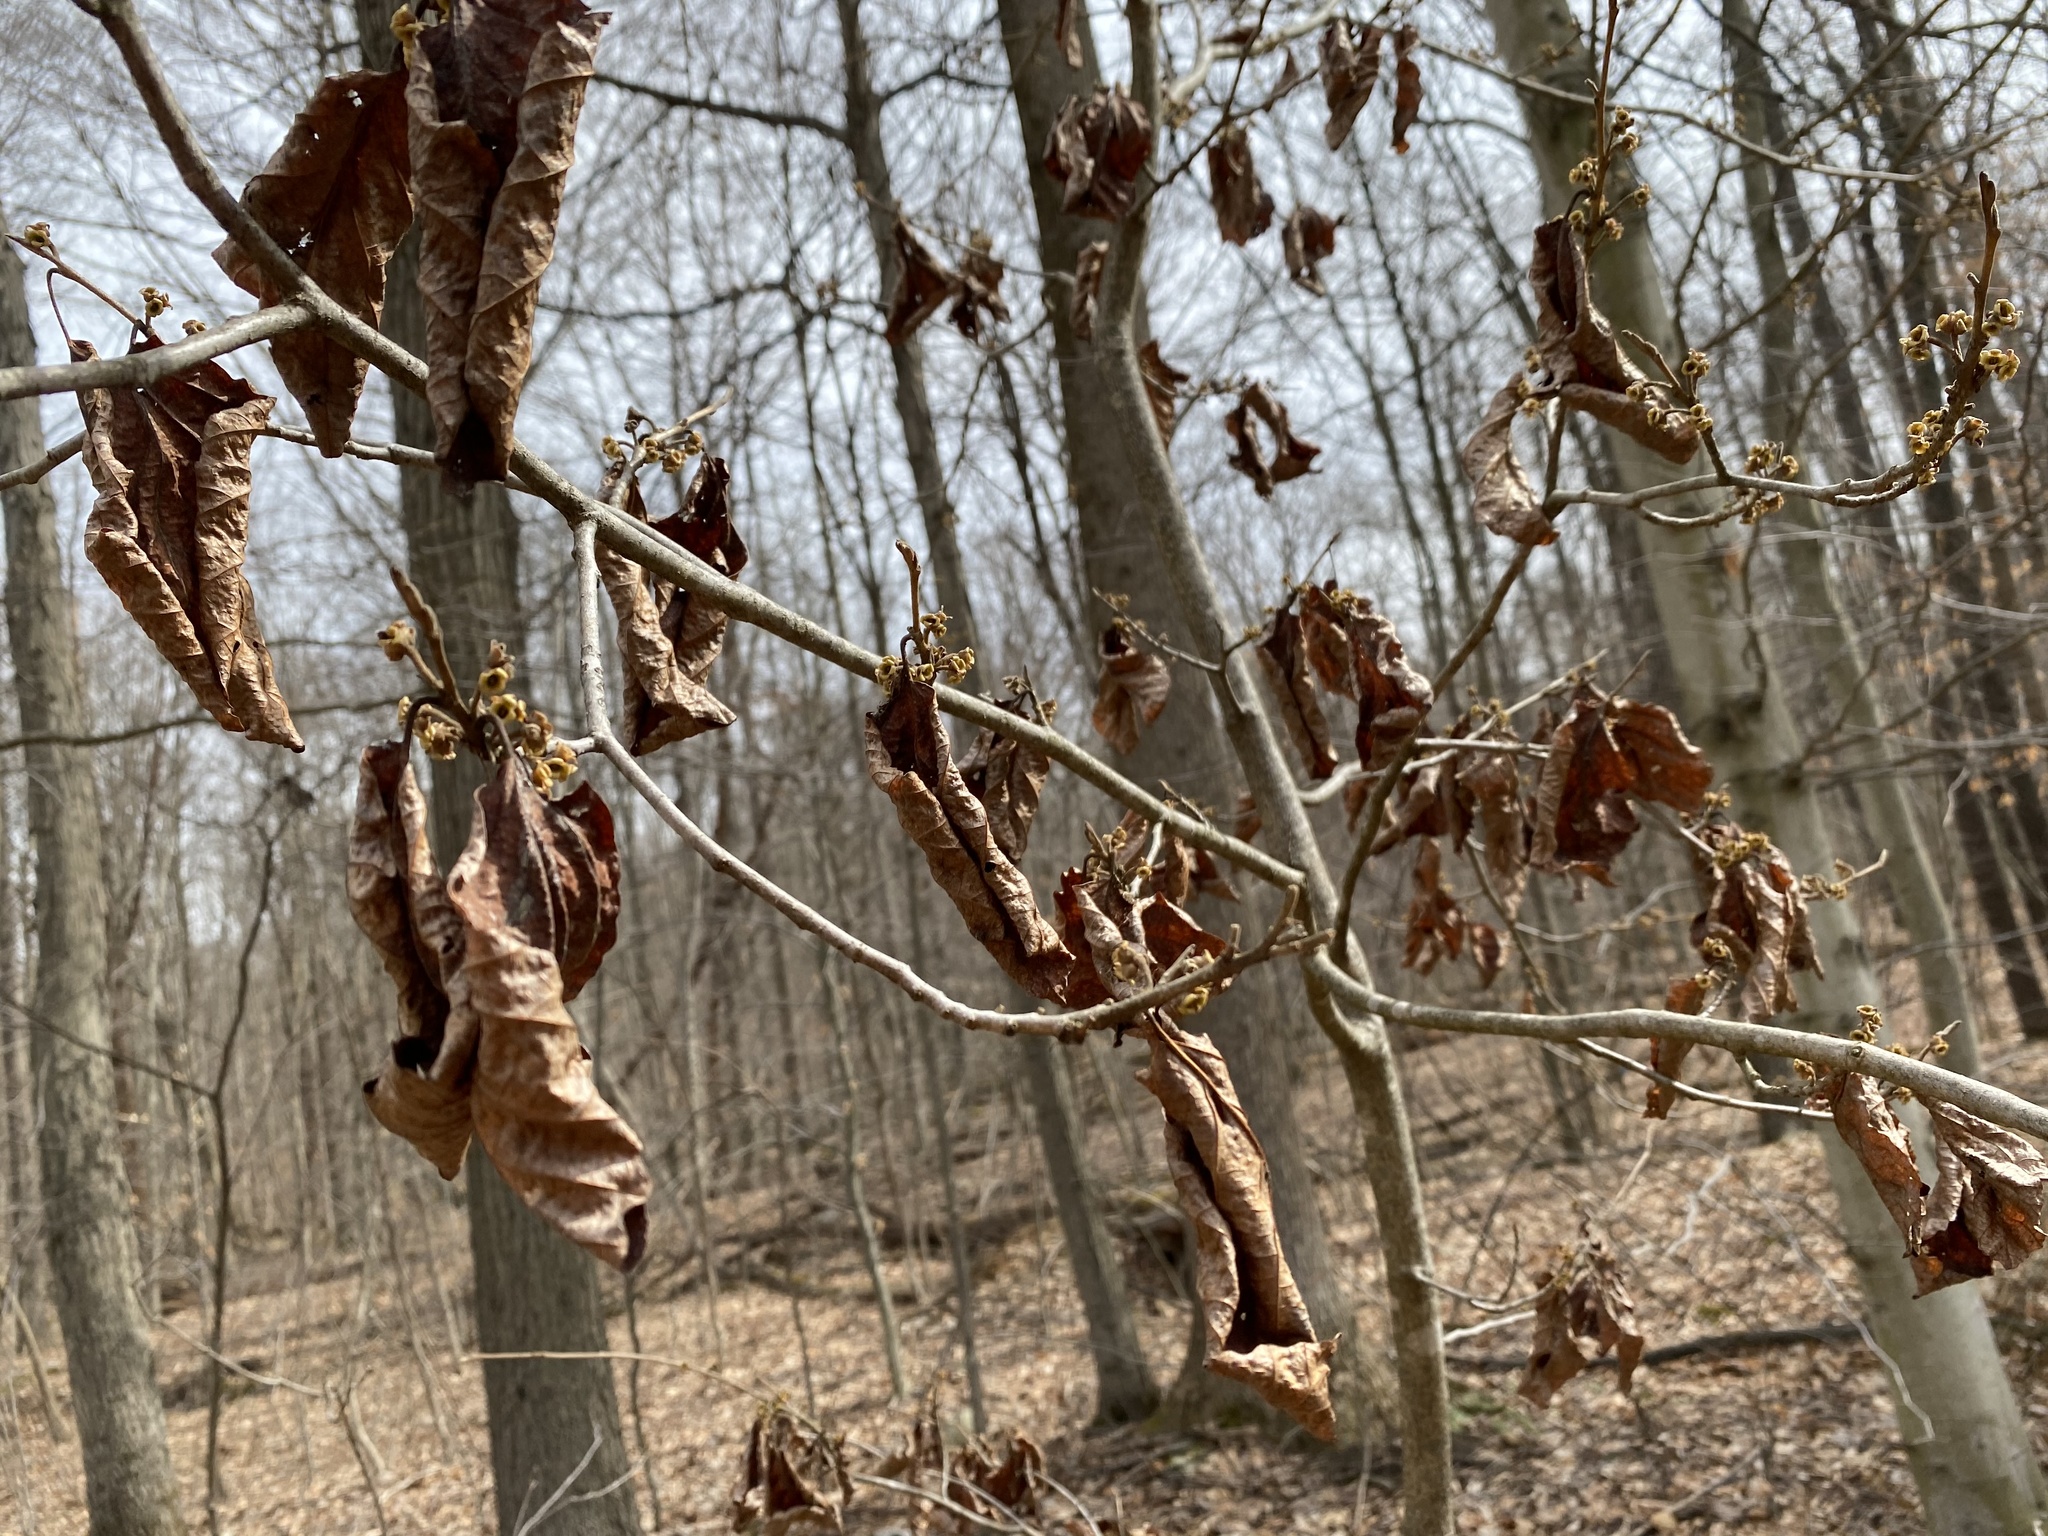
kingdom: Plantae
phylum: Tracheophyta
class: Magnoliopsida
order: Saxifragales
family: Hamamelidaceae
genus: Hamamelis
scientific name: Hamamelis virginiana
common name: Witch-hazel
